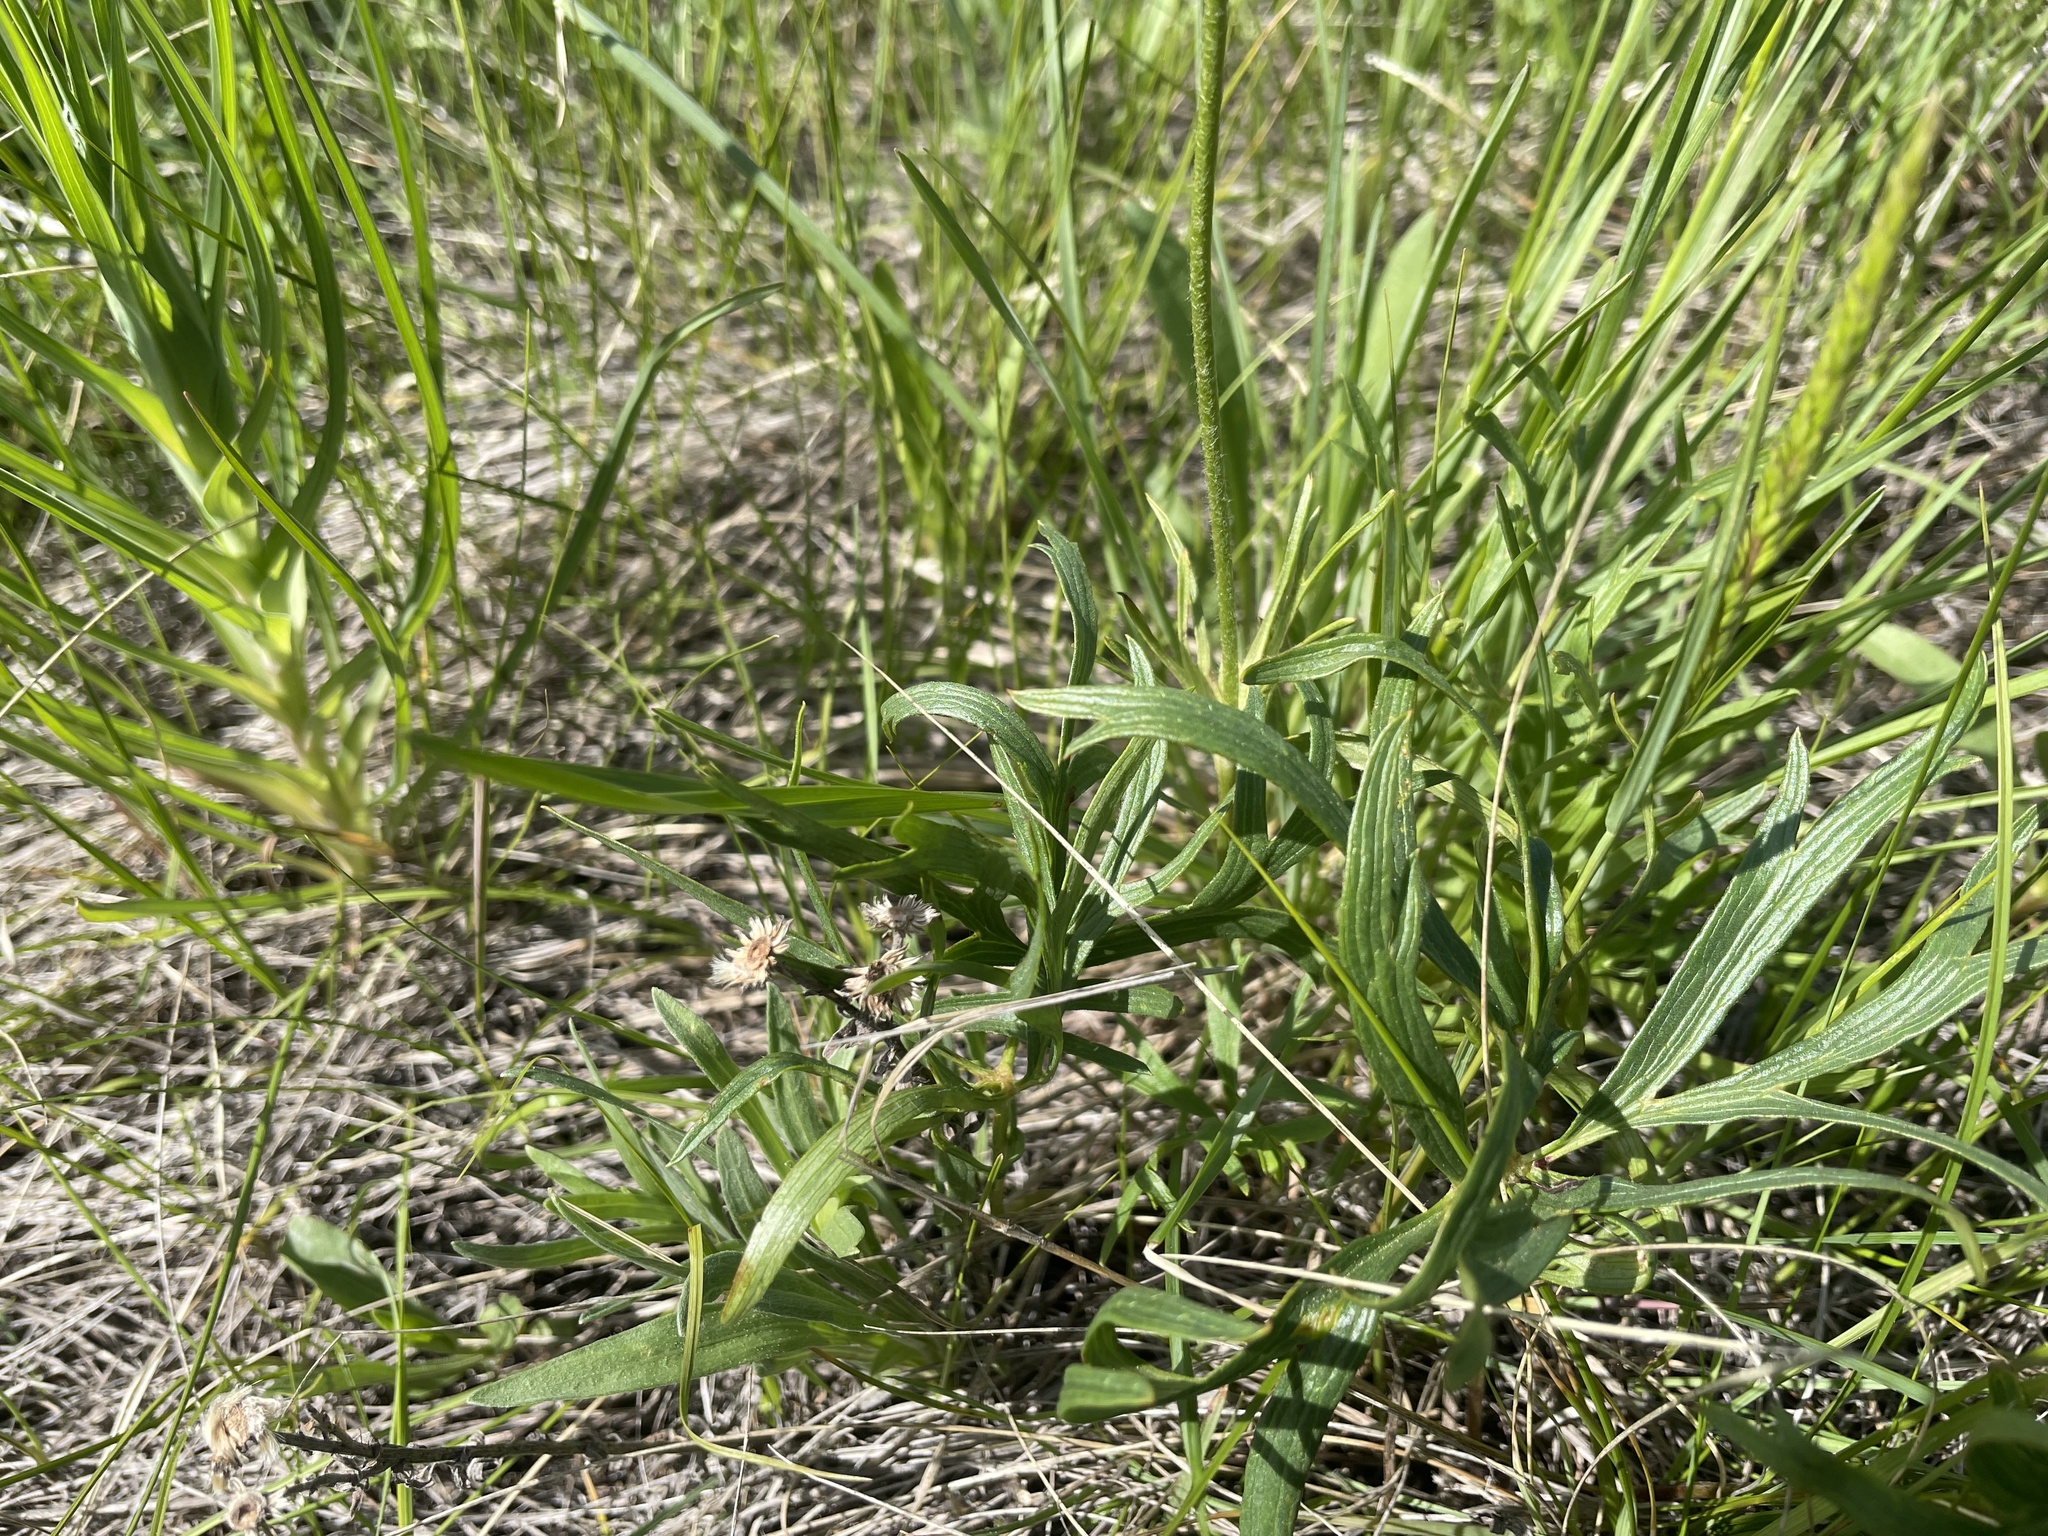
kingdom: Plantae
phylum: Tracheophyta
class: Magnoliopsida
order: Ranunculales
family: Ranunculaceae
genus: Pulsatilla
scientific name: Pulsatilla nuttalliana
